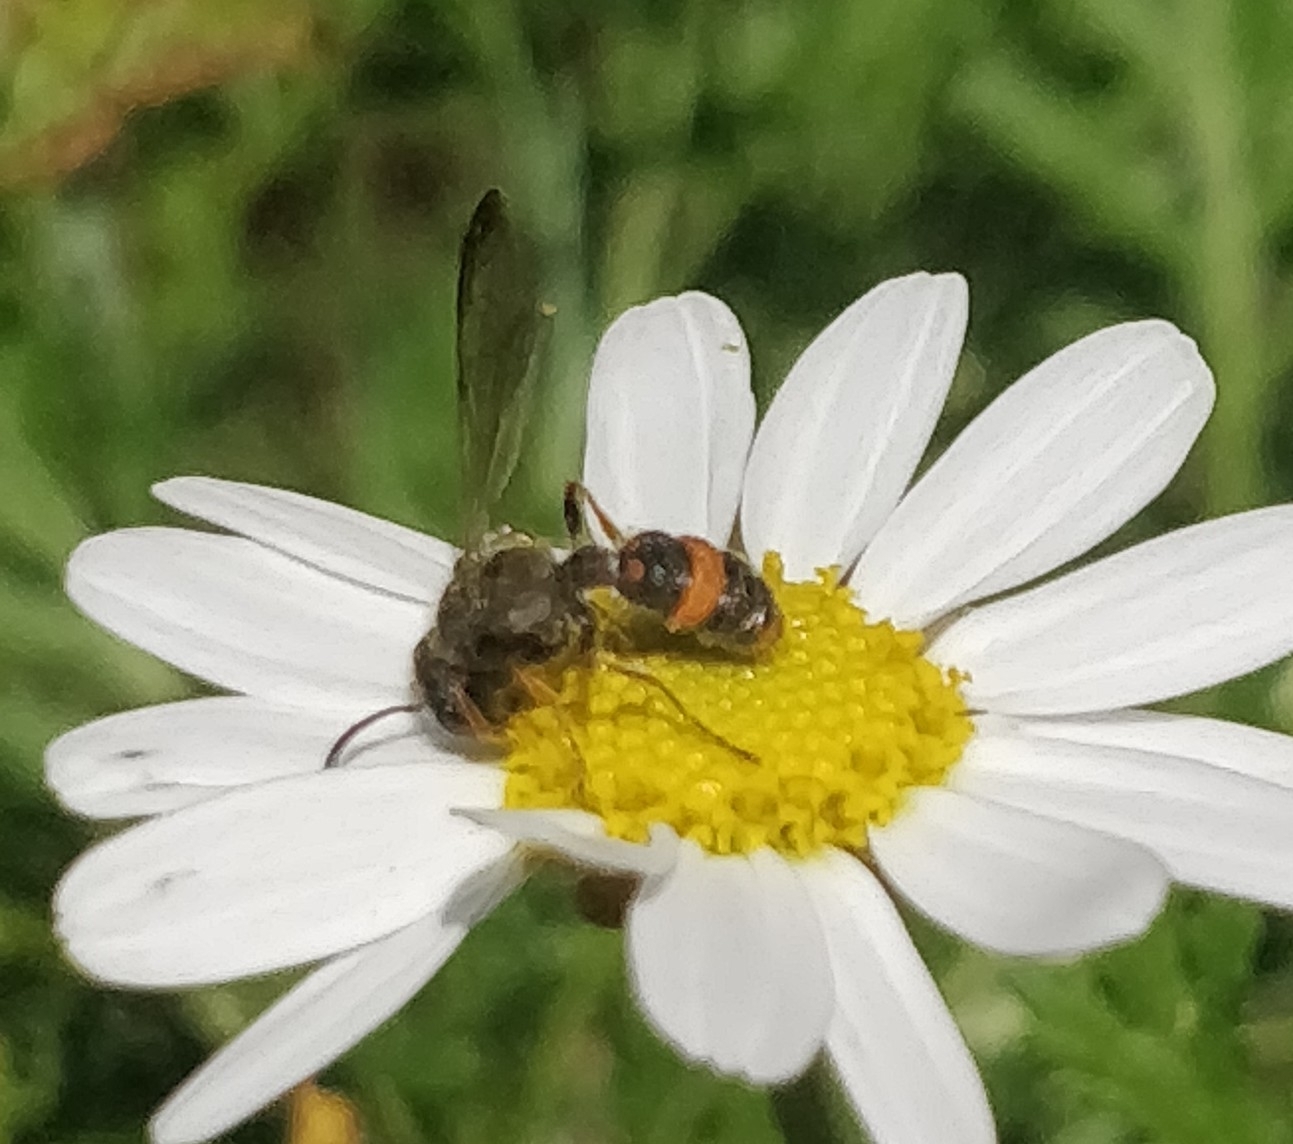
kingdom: Animalia
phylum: Arthropoda
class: Insecta
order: Hymenoptera
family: Crabronidae
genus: Cerceris
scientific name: Cerceris concinna
